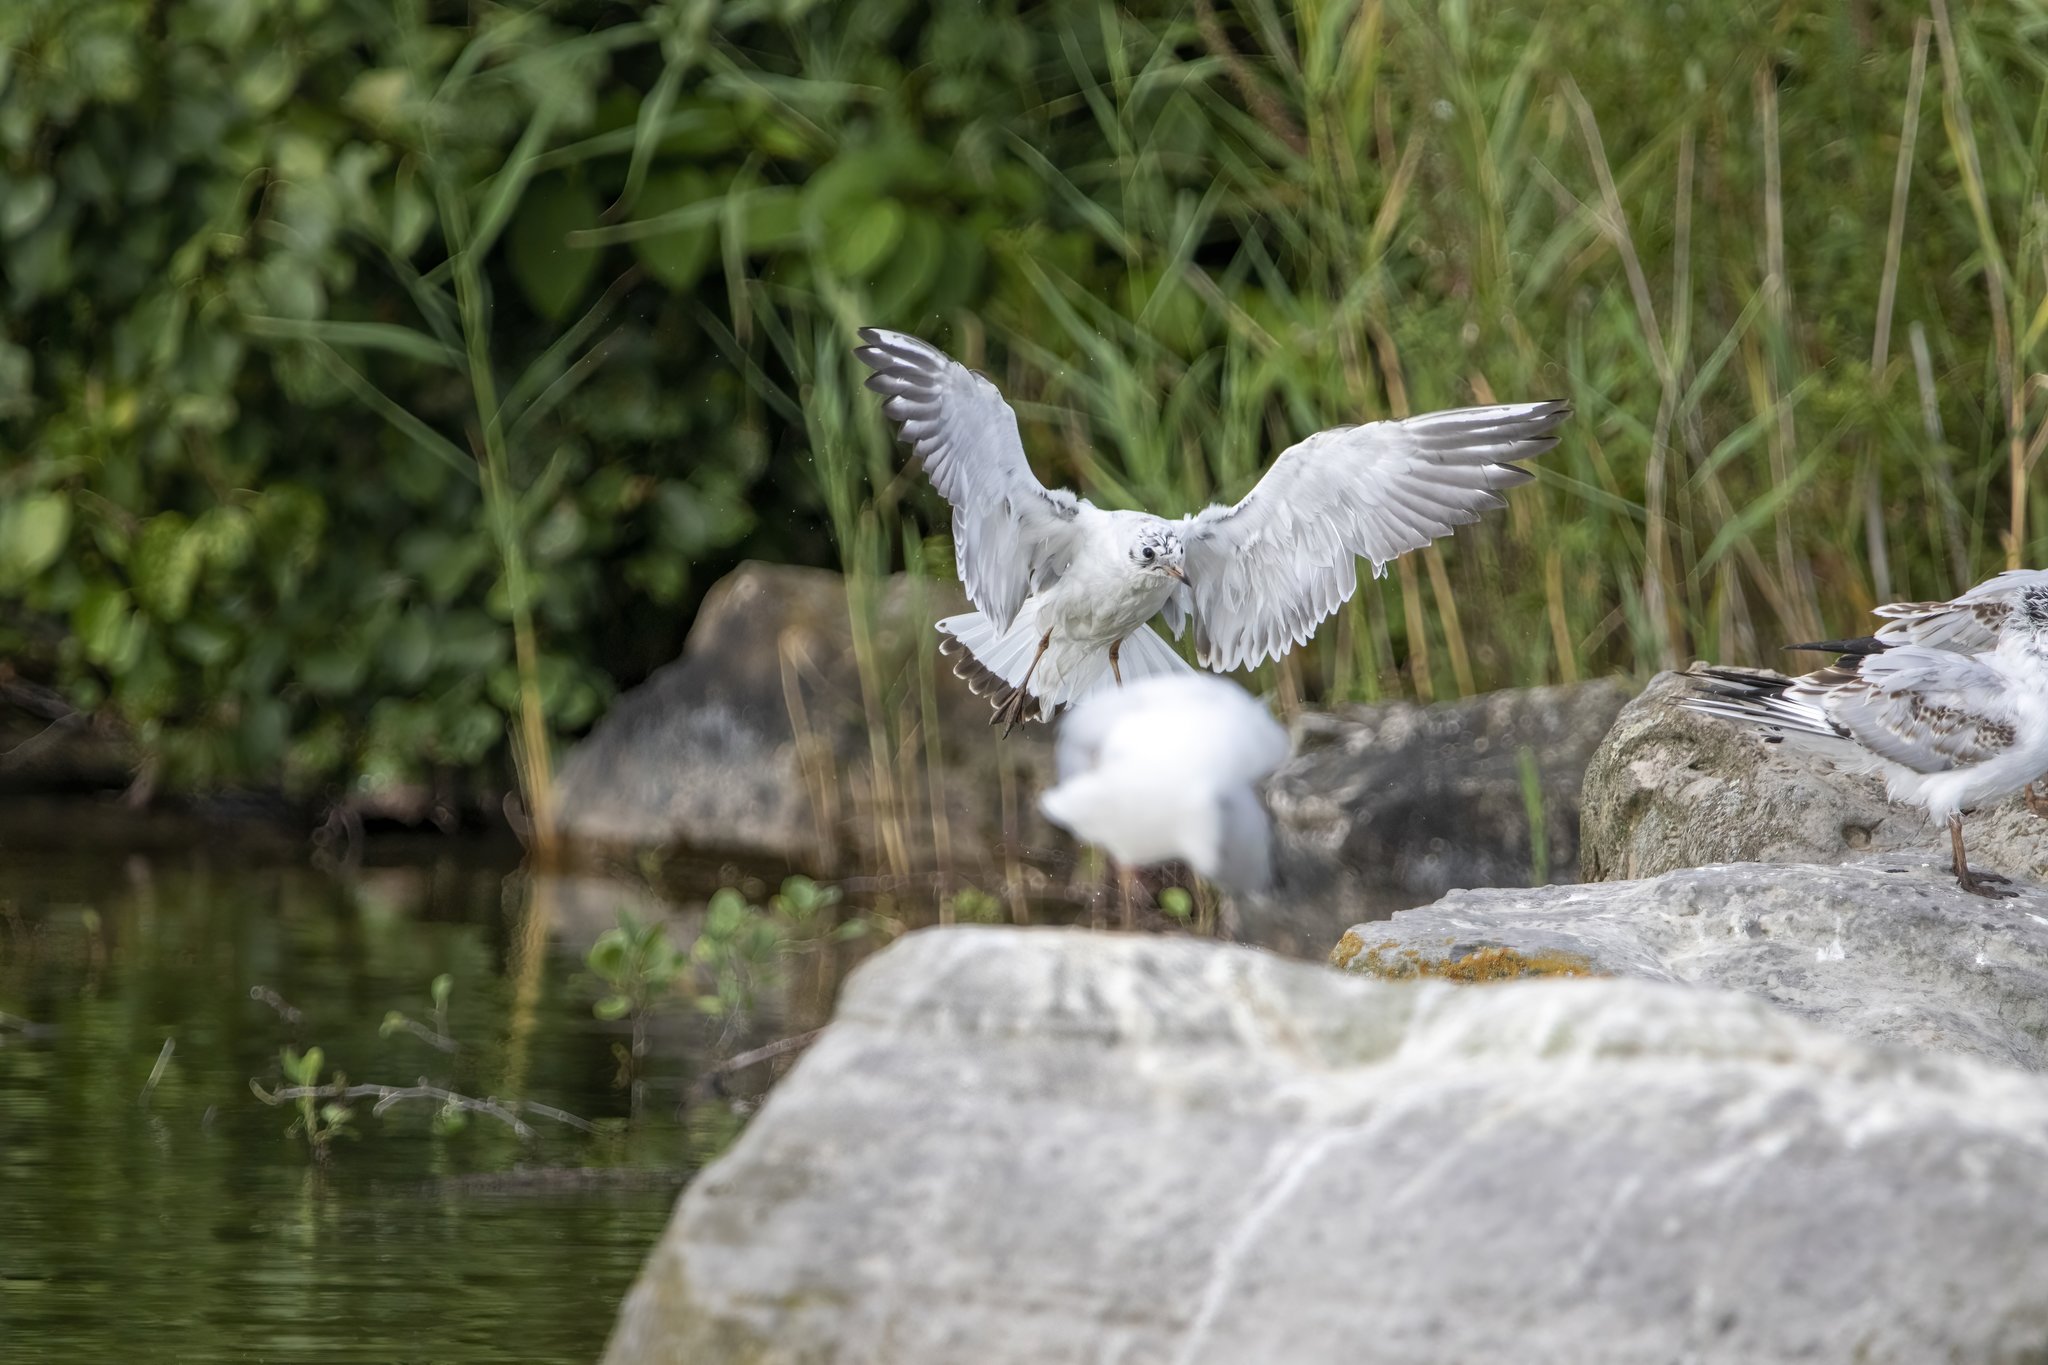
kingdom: Animalia
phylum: Chordata
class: Aves
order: Charadriiformes
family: Laridae
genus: Chroicocephalus
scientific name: Chroicocephalus ridibundus
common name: Black-headed gull
